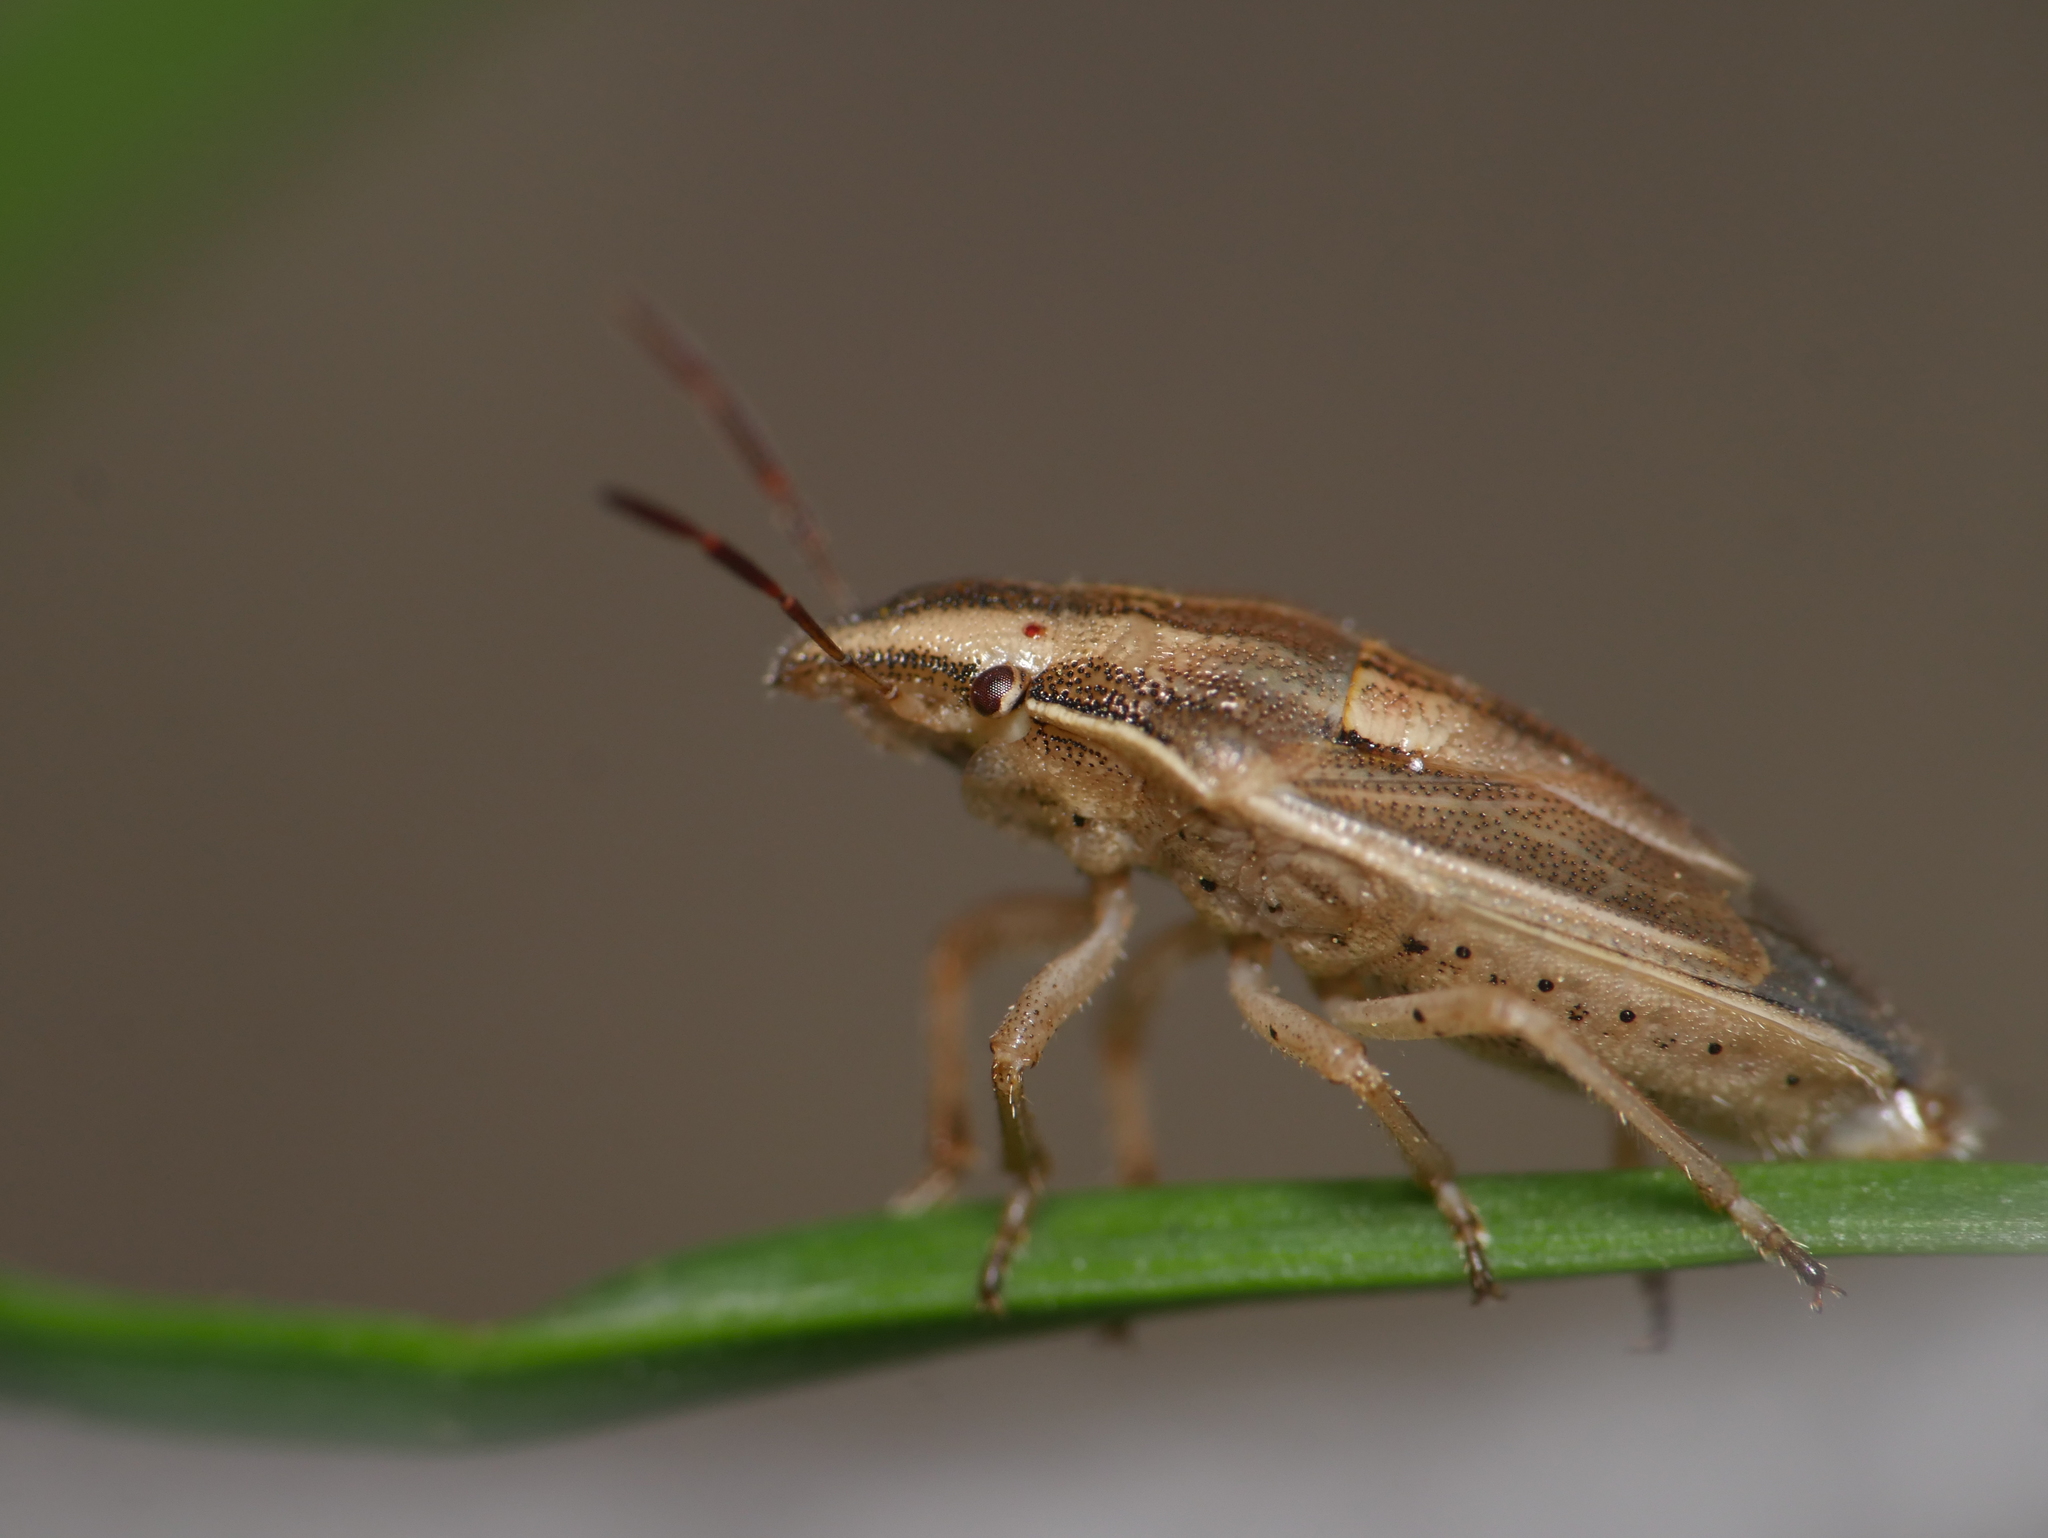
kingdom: Animalia
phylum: Arthropoda
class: Insecta
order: Hemiptera
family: Pentatomidae
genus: Aelia
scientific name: Aelia acuminata
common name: Bishop's mitre
